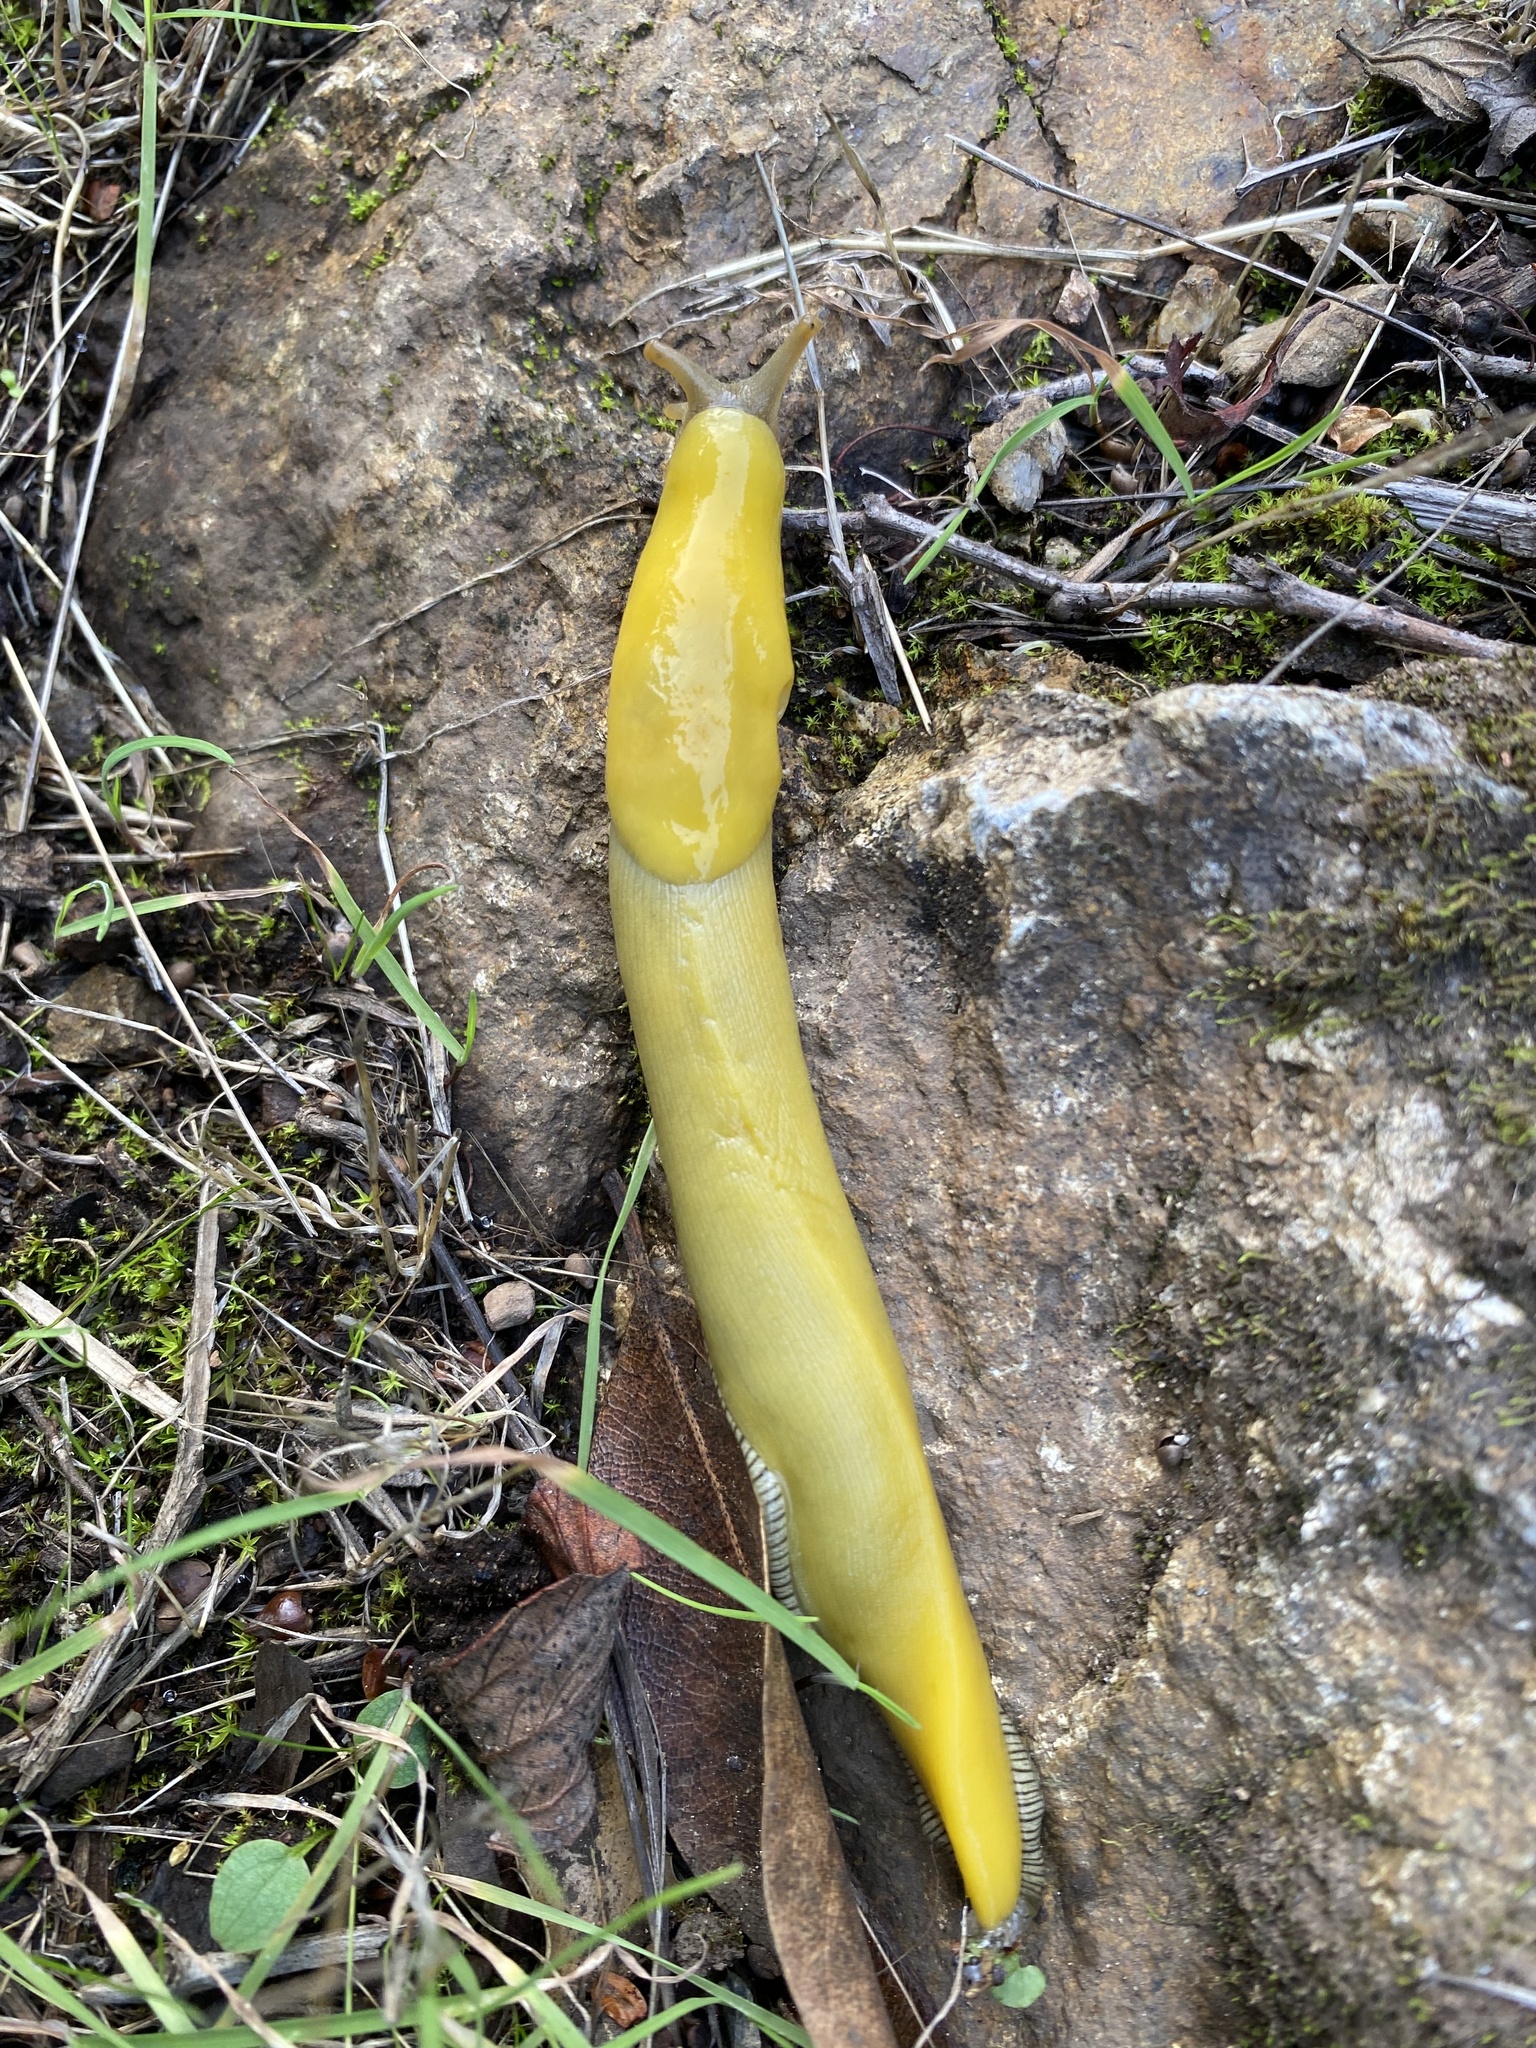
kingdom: Animalia
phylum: Mollusca
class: Gastropoda
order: Stylommatophora
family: Ariolimacidae
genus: Ariolimax
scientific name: Ariolimax stramineus
